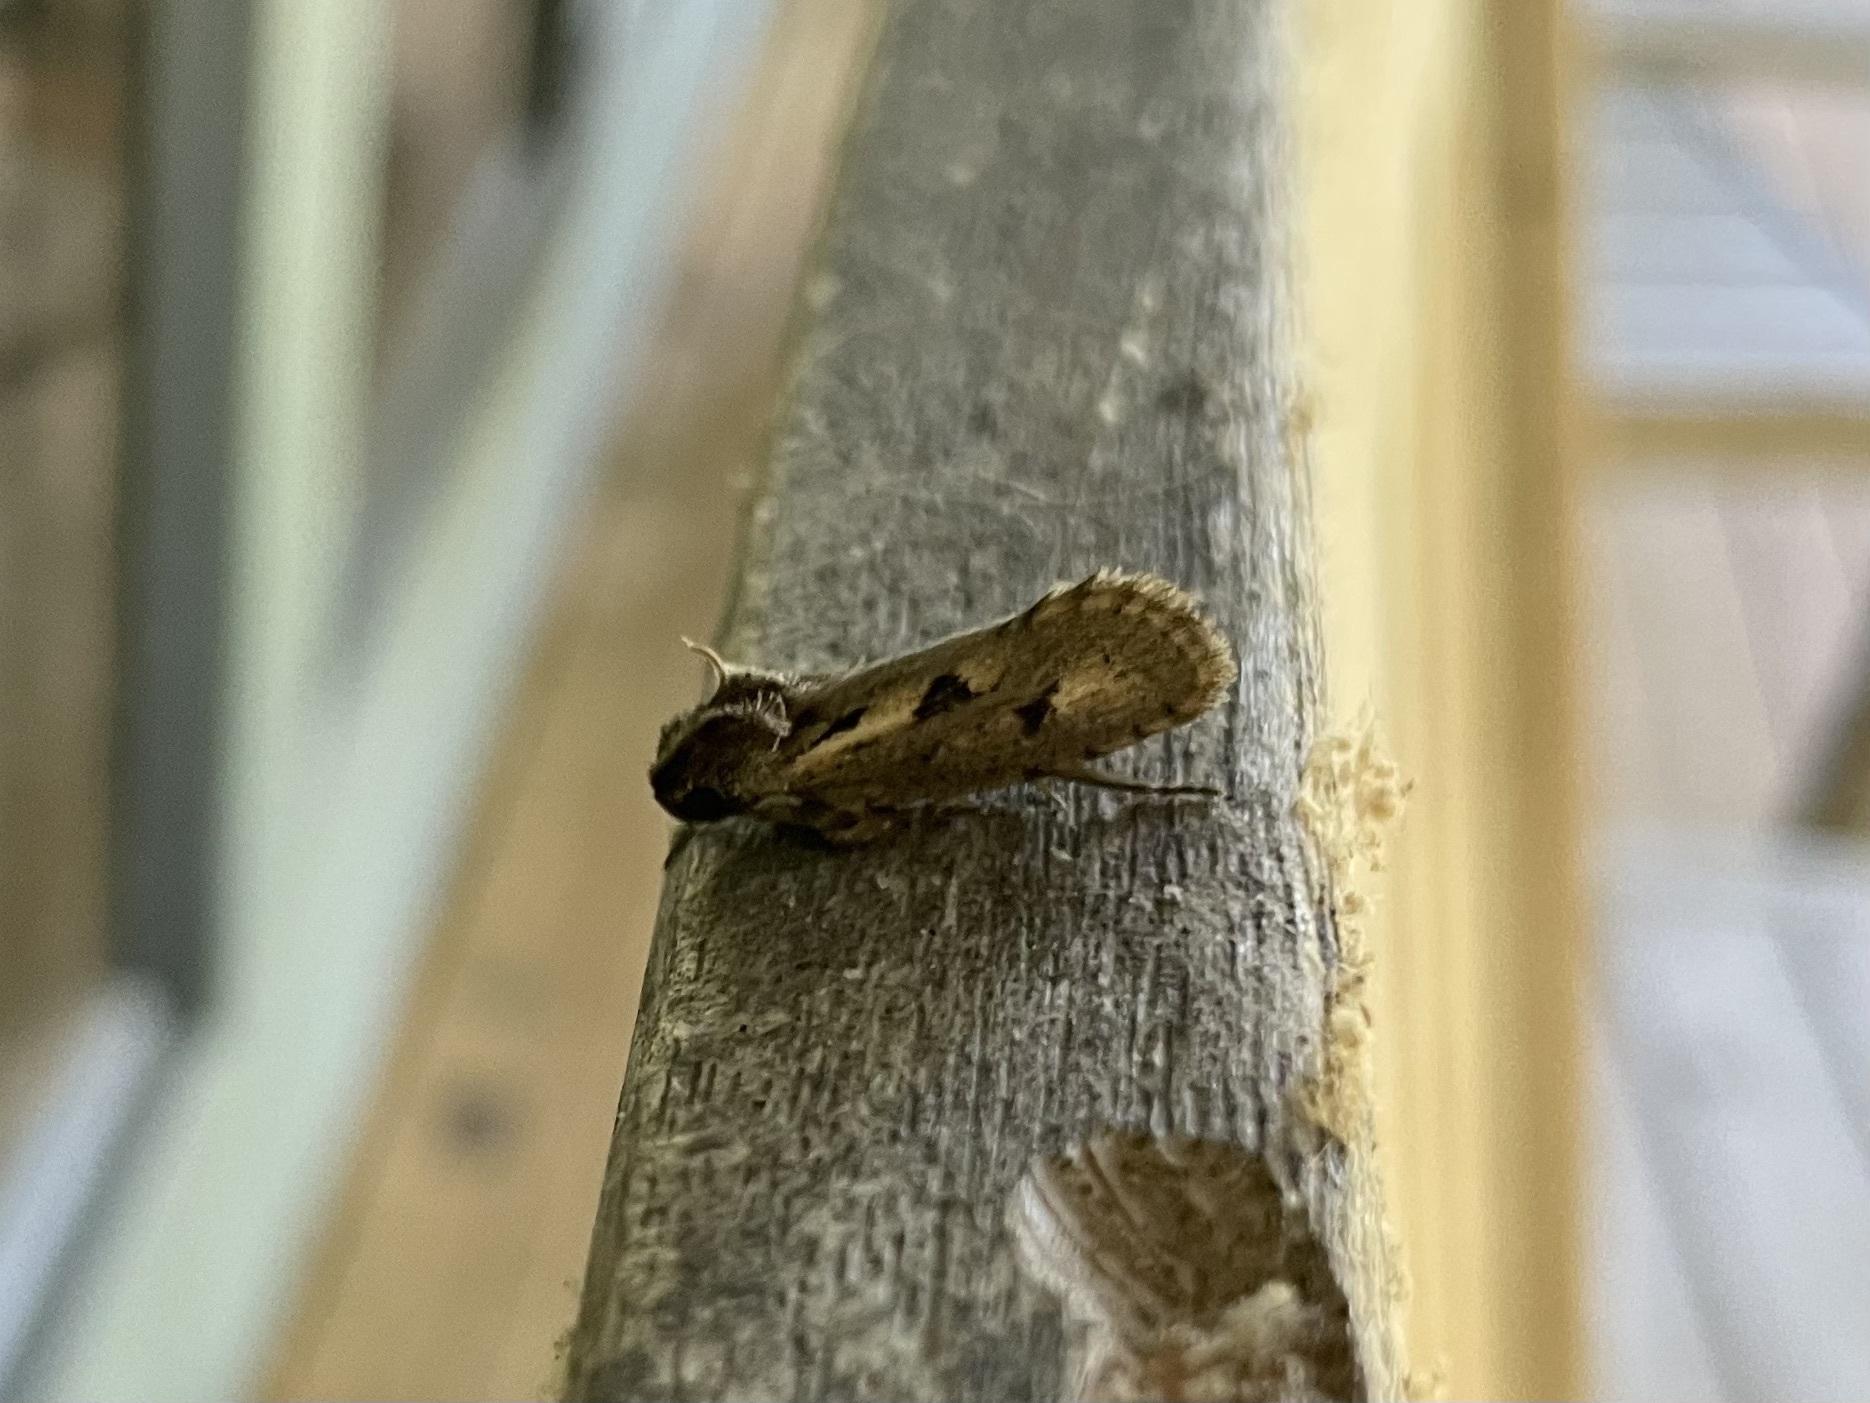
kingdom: Animalia
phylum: Arthropoda
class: Insecta
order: Lepidoptera
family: Tineidae
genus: Acrolophus
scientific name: Acrolophus popeanella
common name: Clemens' grass tubeworm moth
